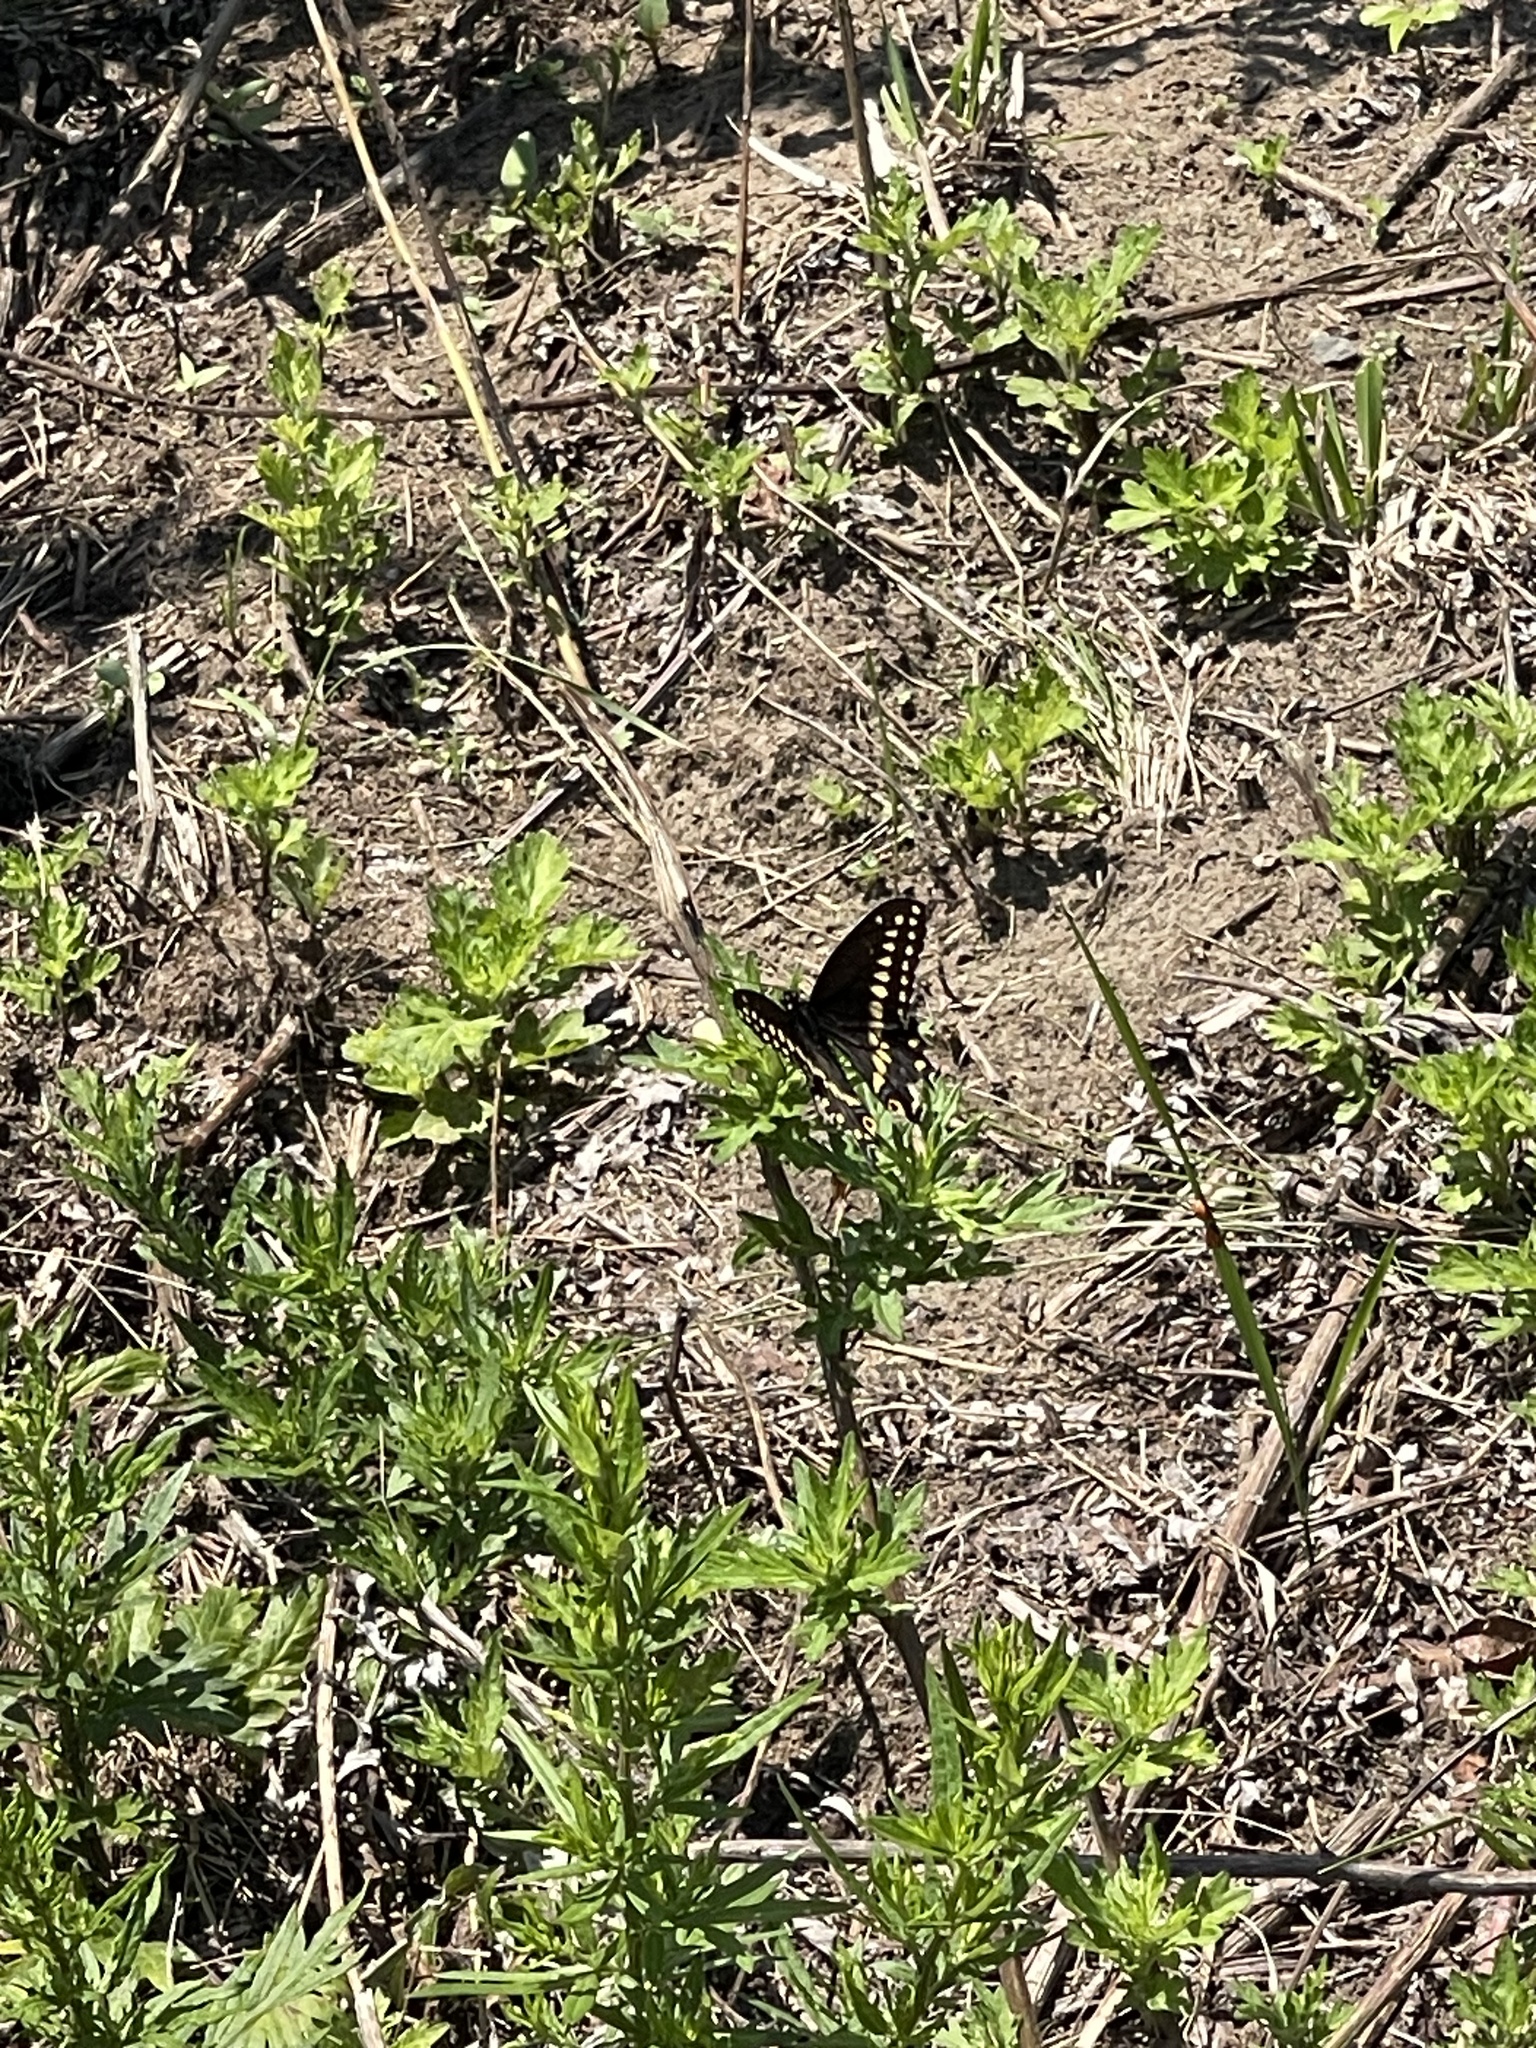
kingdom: Animalia
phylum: Arthropoda
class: Insecta
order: Lepidoptera
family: Papilionidae
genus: Papilio
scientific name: Papilio polyxenes
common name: Black swallowtail
